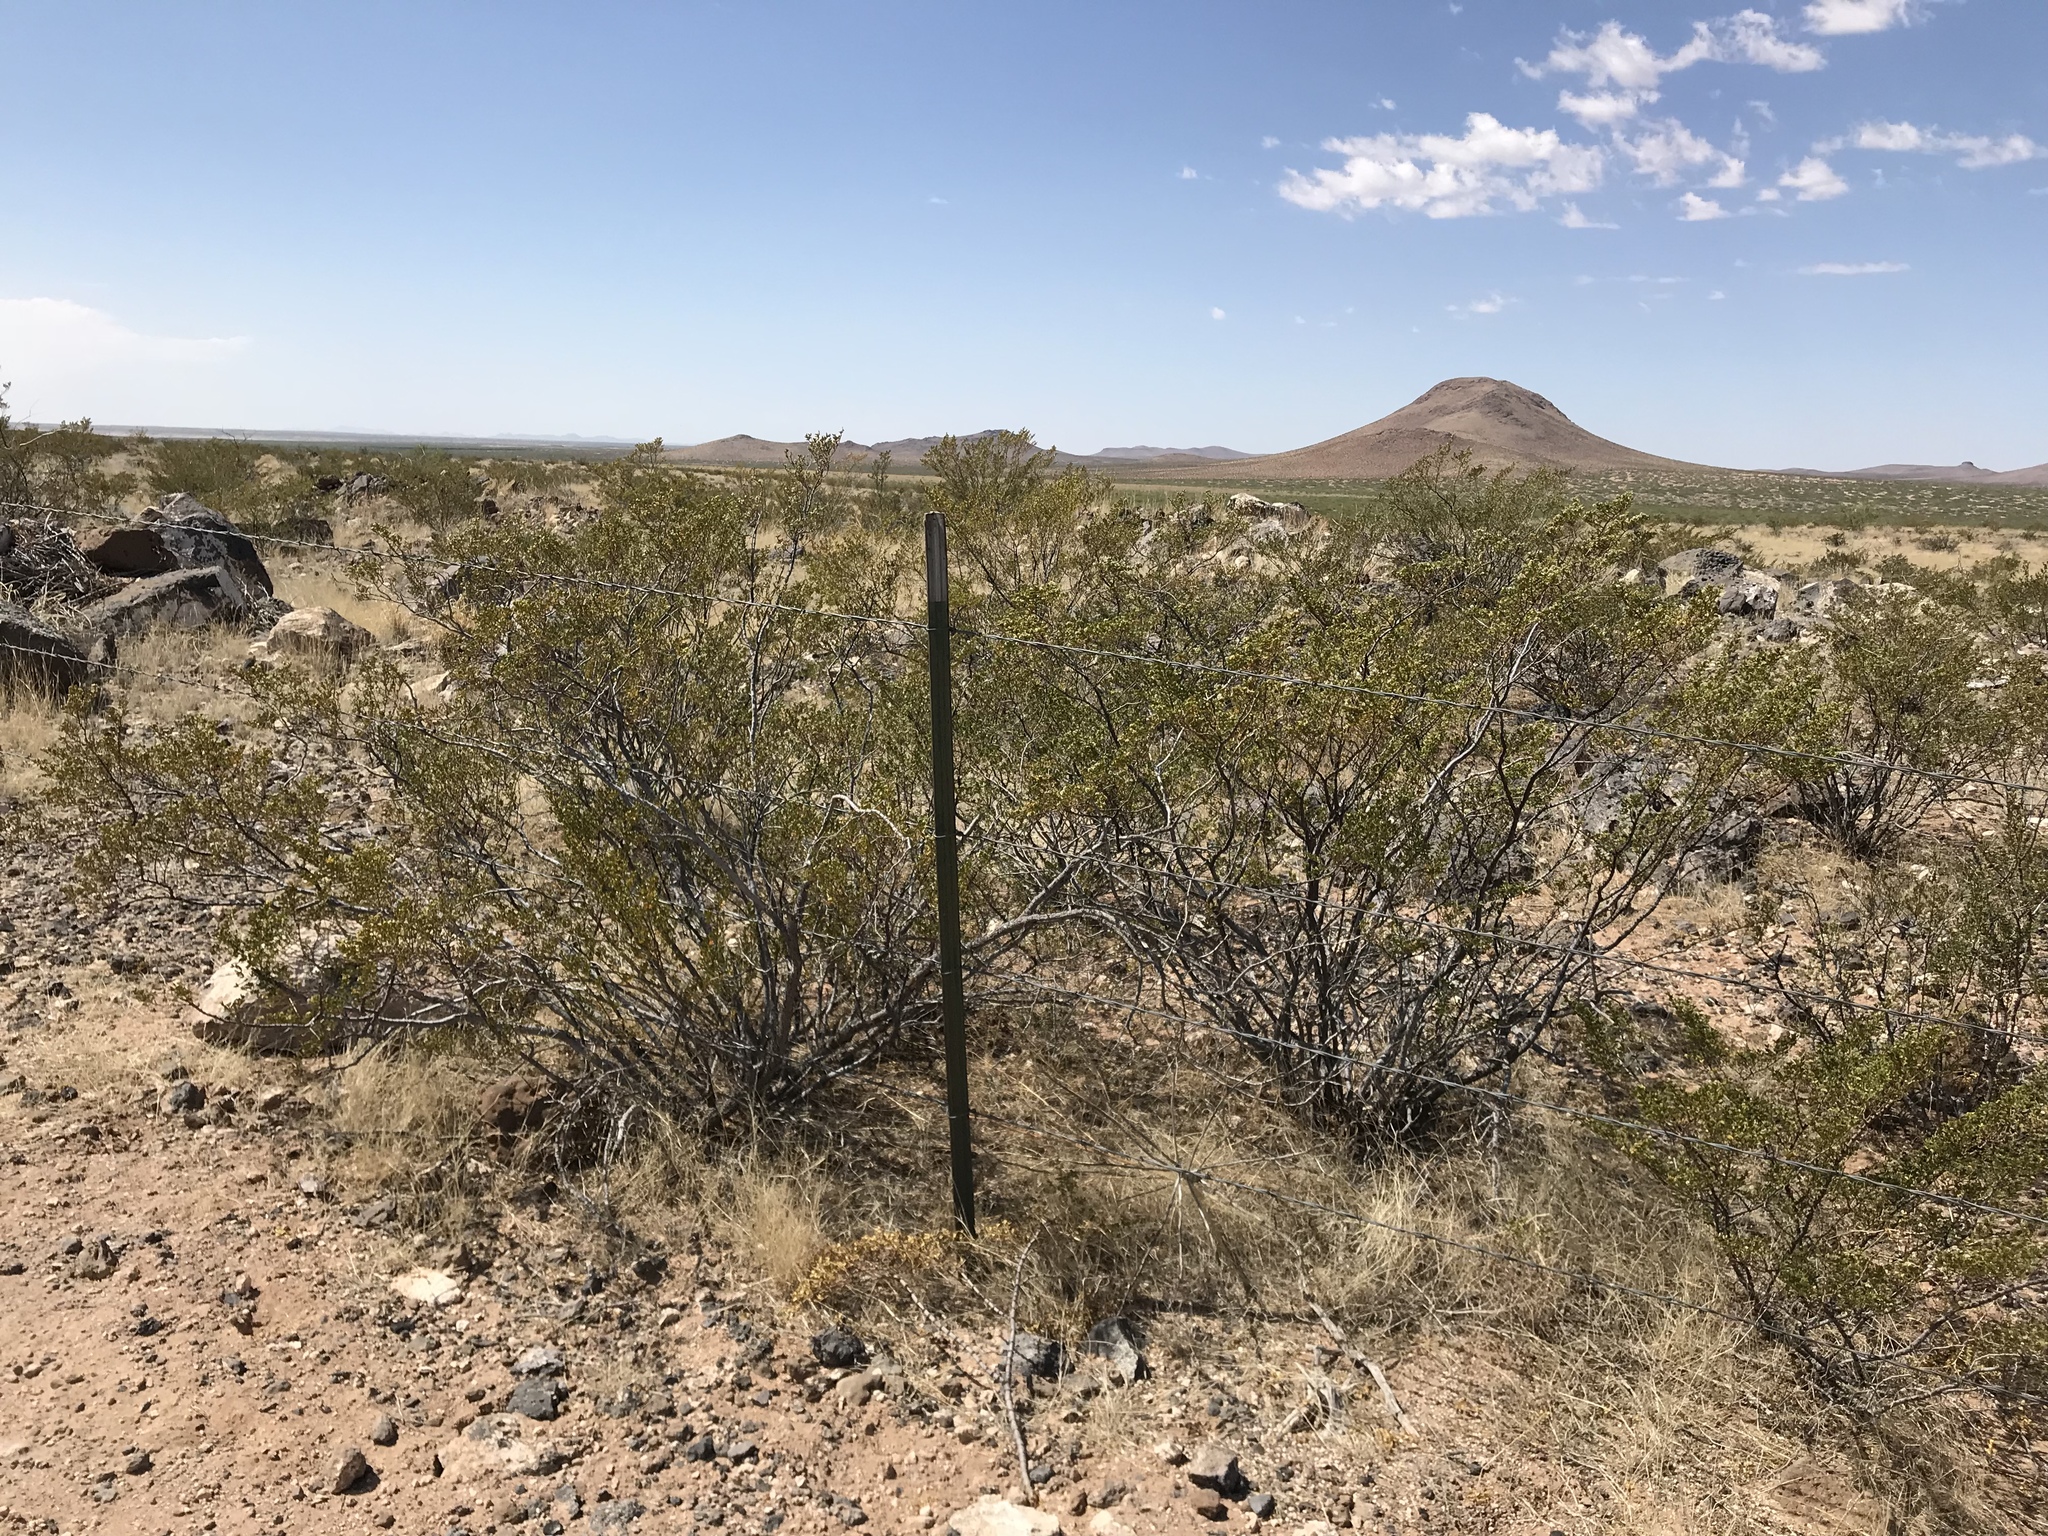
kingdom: Plantae
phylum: Tracheophyta
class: Magnoliopsida
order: Zygophyllales
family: Zygophyllaceae
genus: Larrea
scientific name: Larrea tridentata
